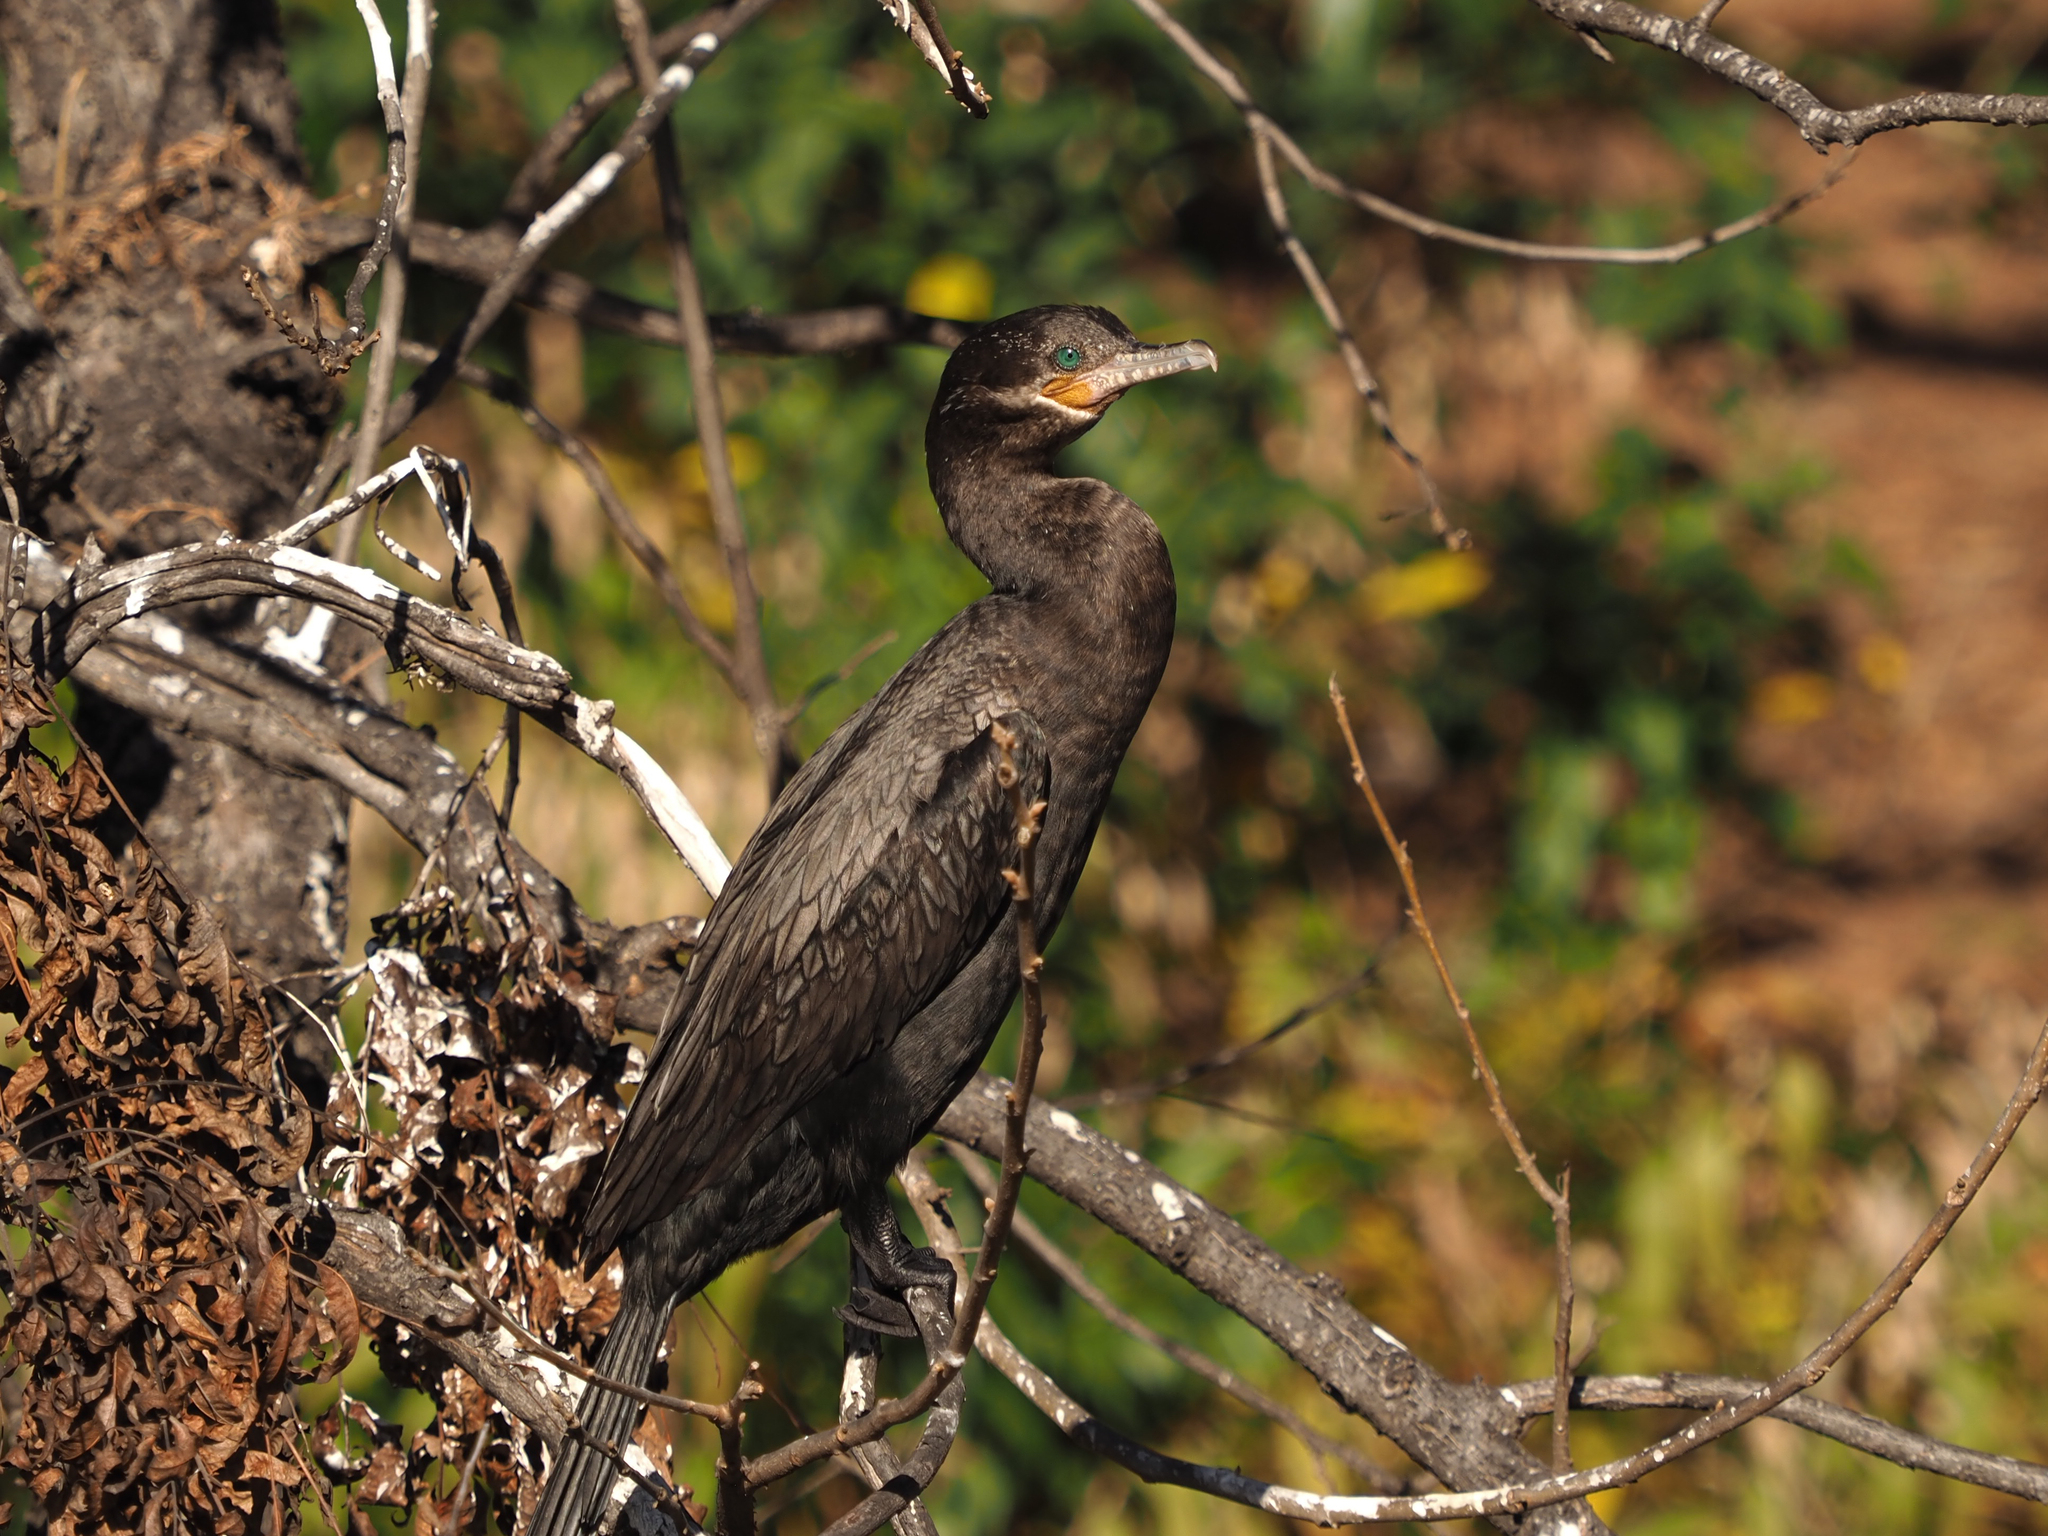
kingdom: Animalia
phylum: Chordata
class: Aves
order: Suliformes
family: Phalacrocoracidae
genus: Phalacrocorax
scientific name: Phalacrocorax brasilianus
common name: Neotropic cormorant
